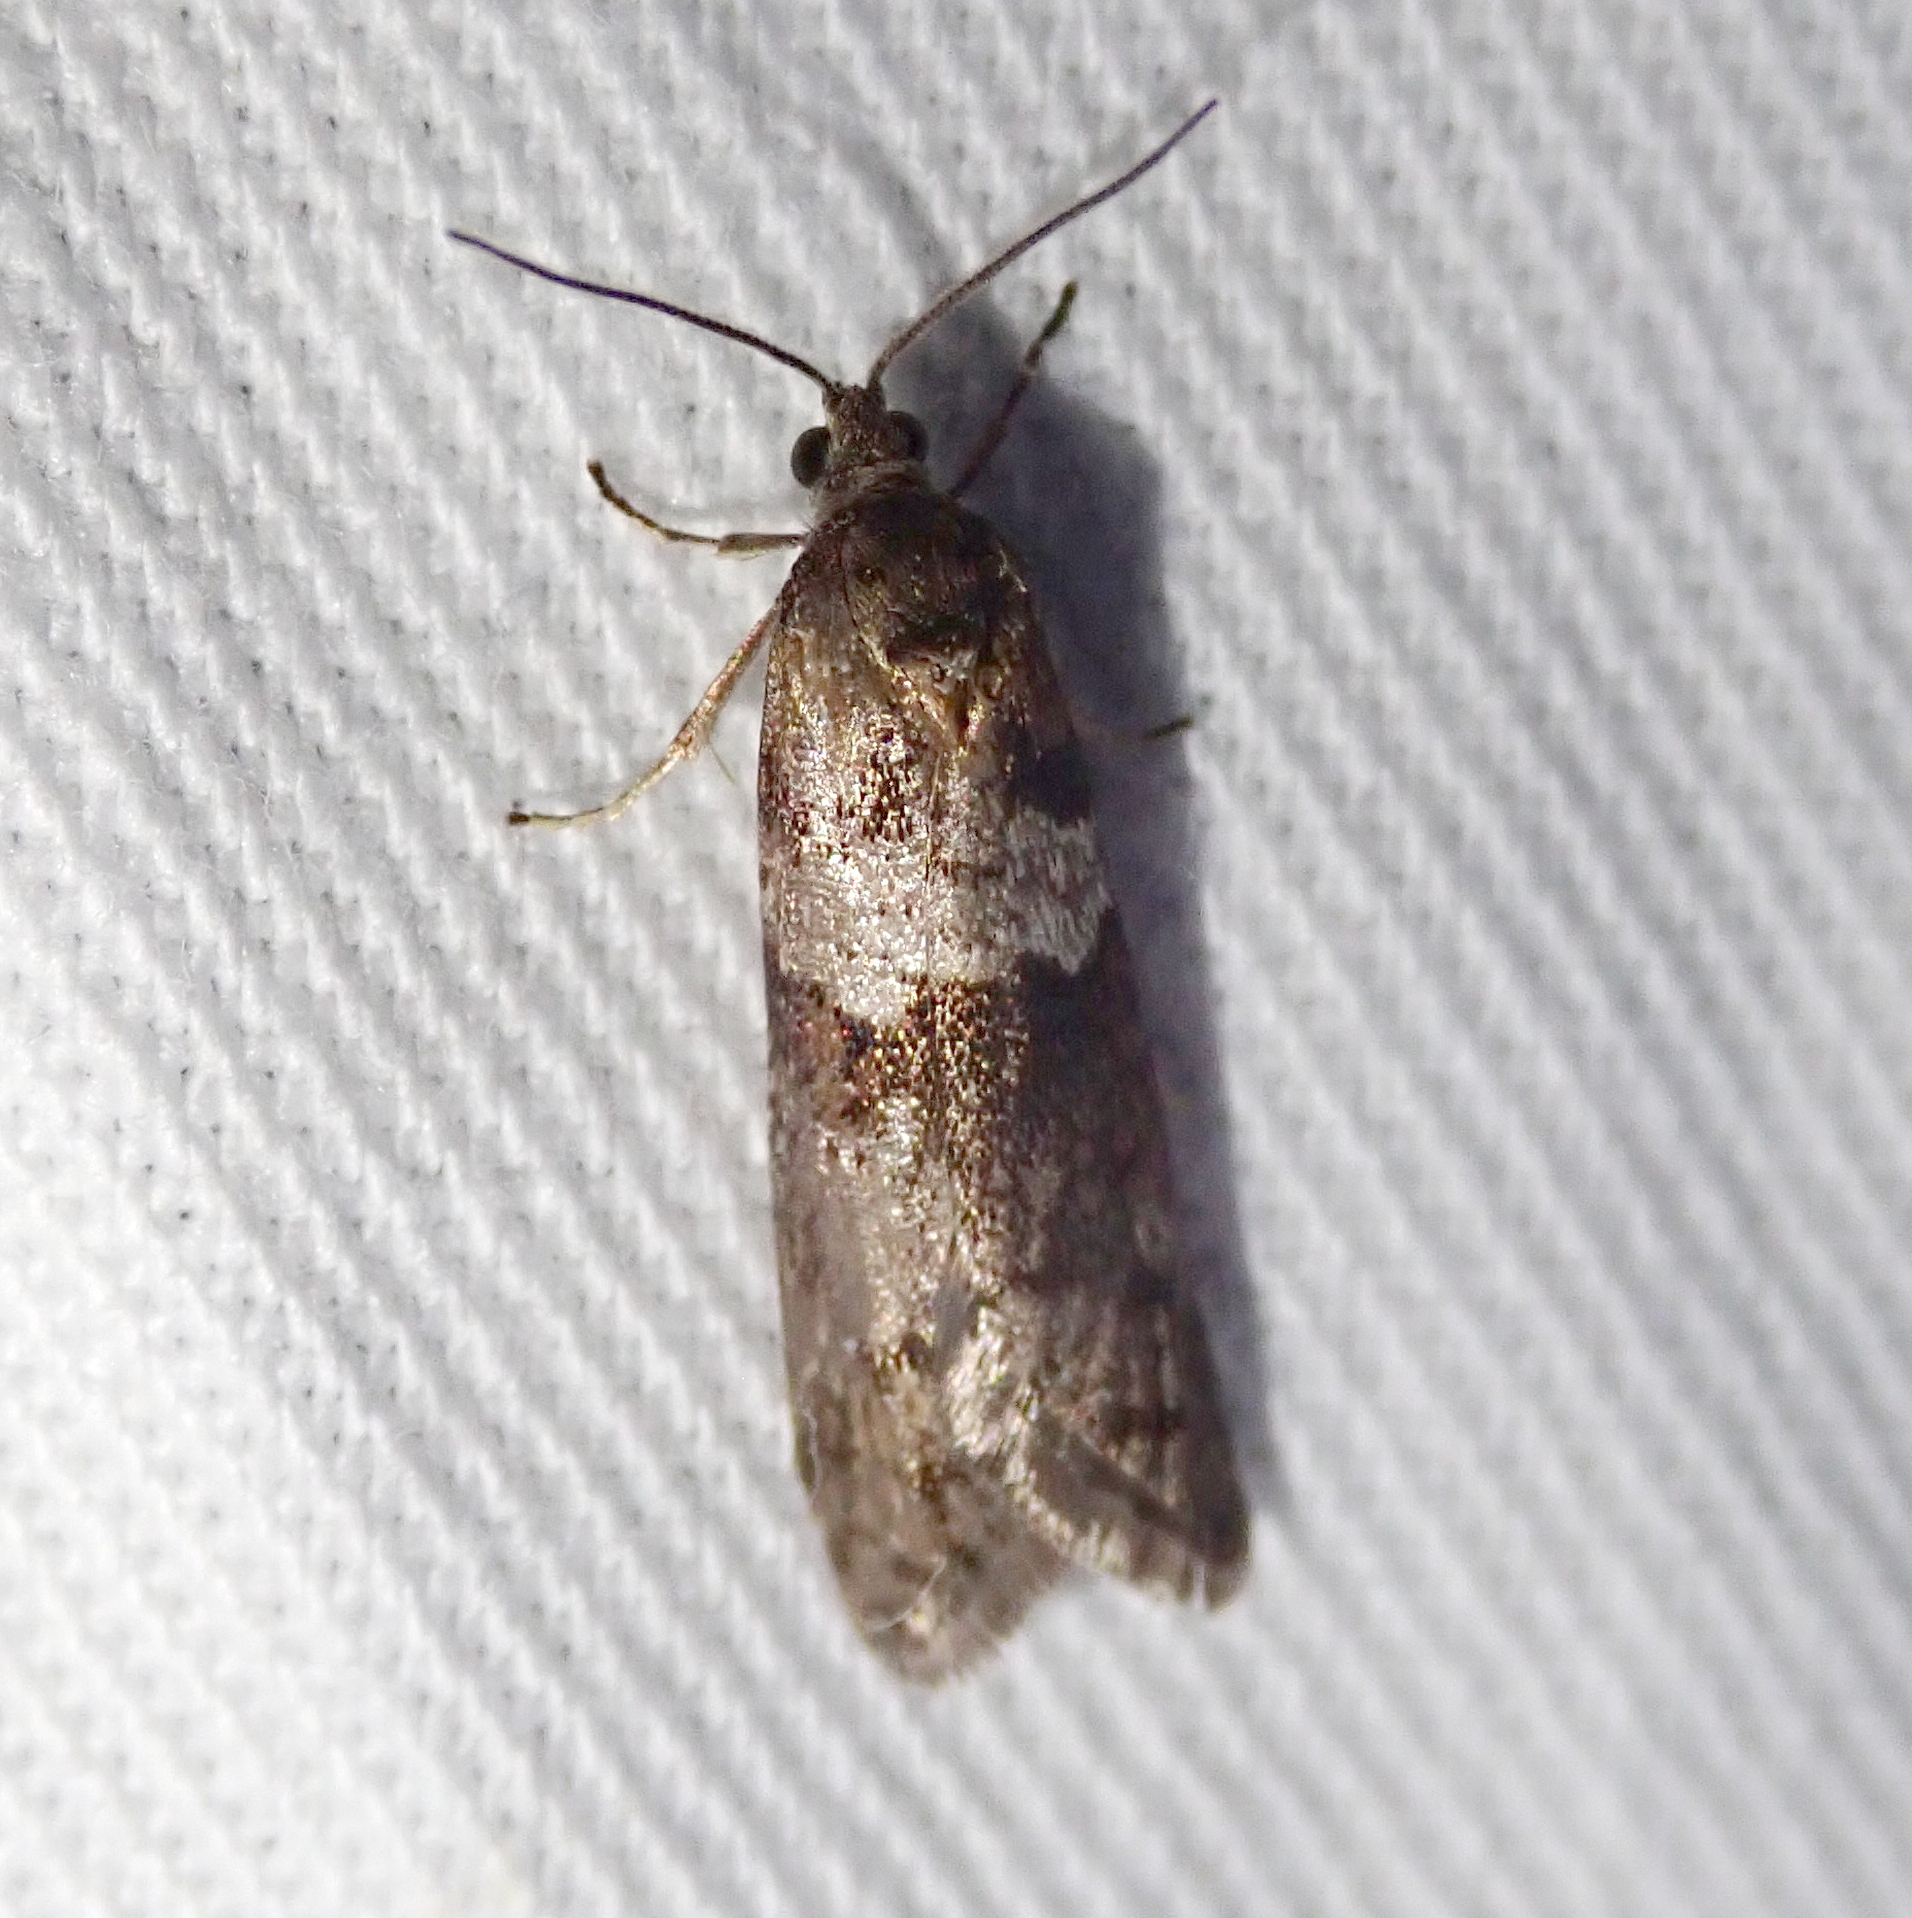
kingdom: Animalia
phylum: Arthropoda
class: Insecta
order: Lepidoptera
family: Tortricidae
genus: Tortricodes
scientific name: Tortricodes alternella
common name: Winter shade
